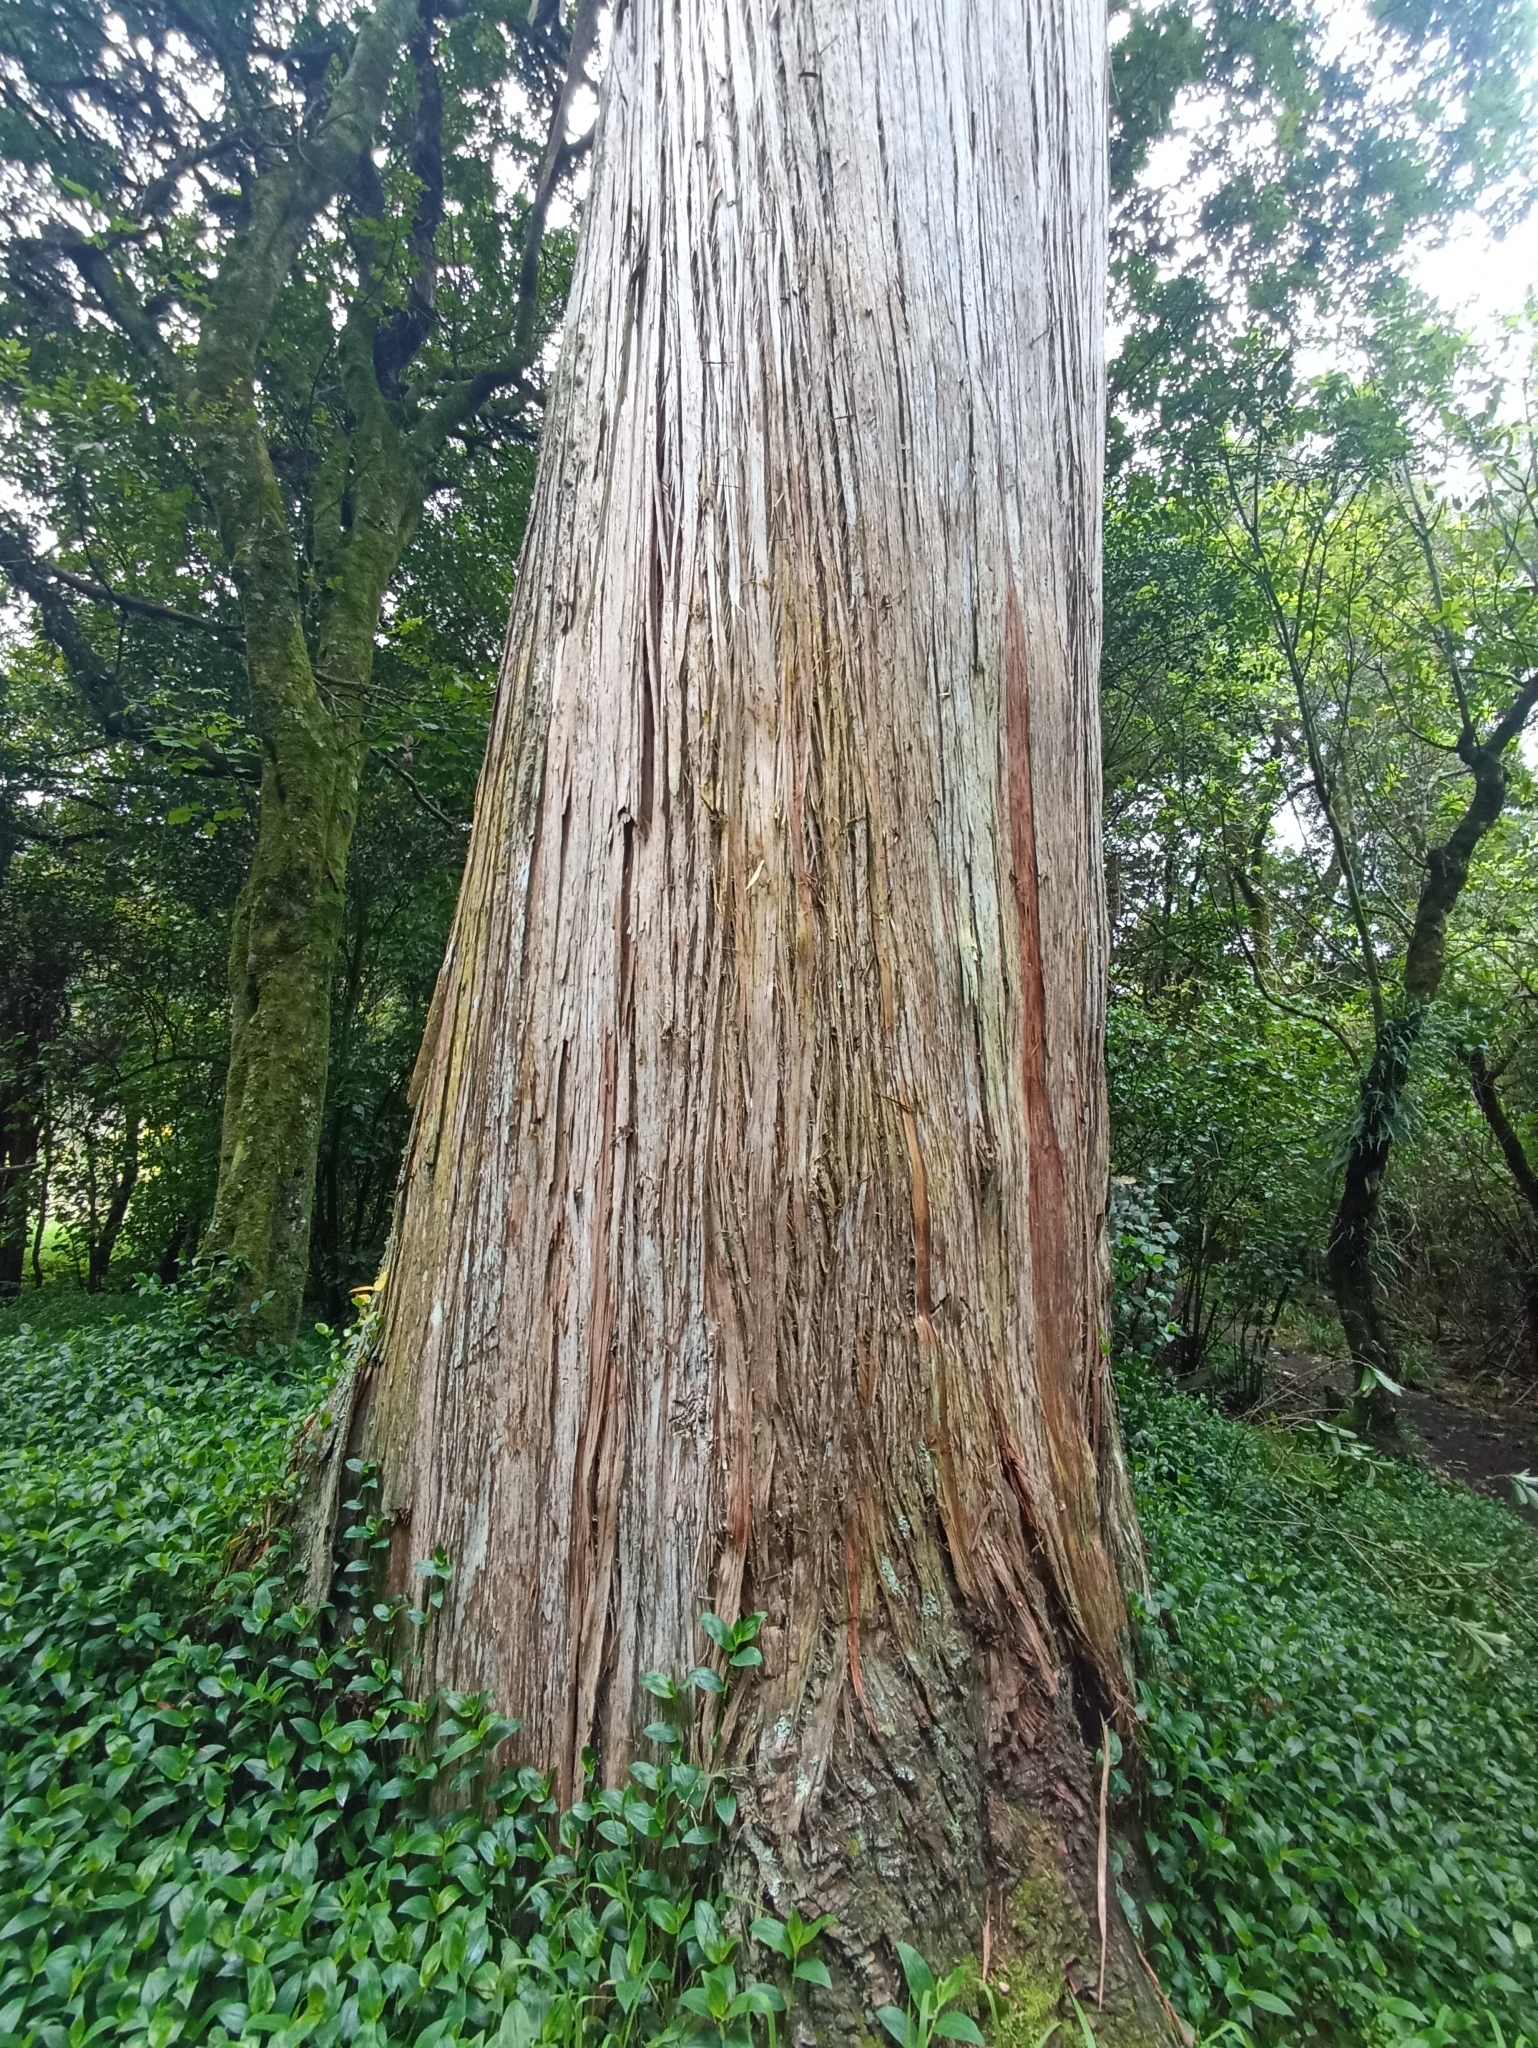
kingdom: Plantae
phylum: Tracheophyta
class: Pinopsida
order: Pinales
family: Podocarpaceae
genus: Podocarpus
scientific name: Podocarpus totara
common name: Totara
